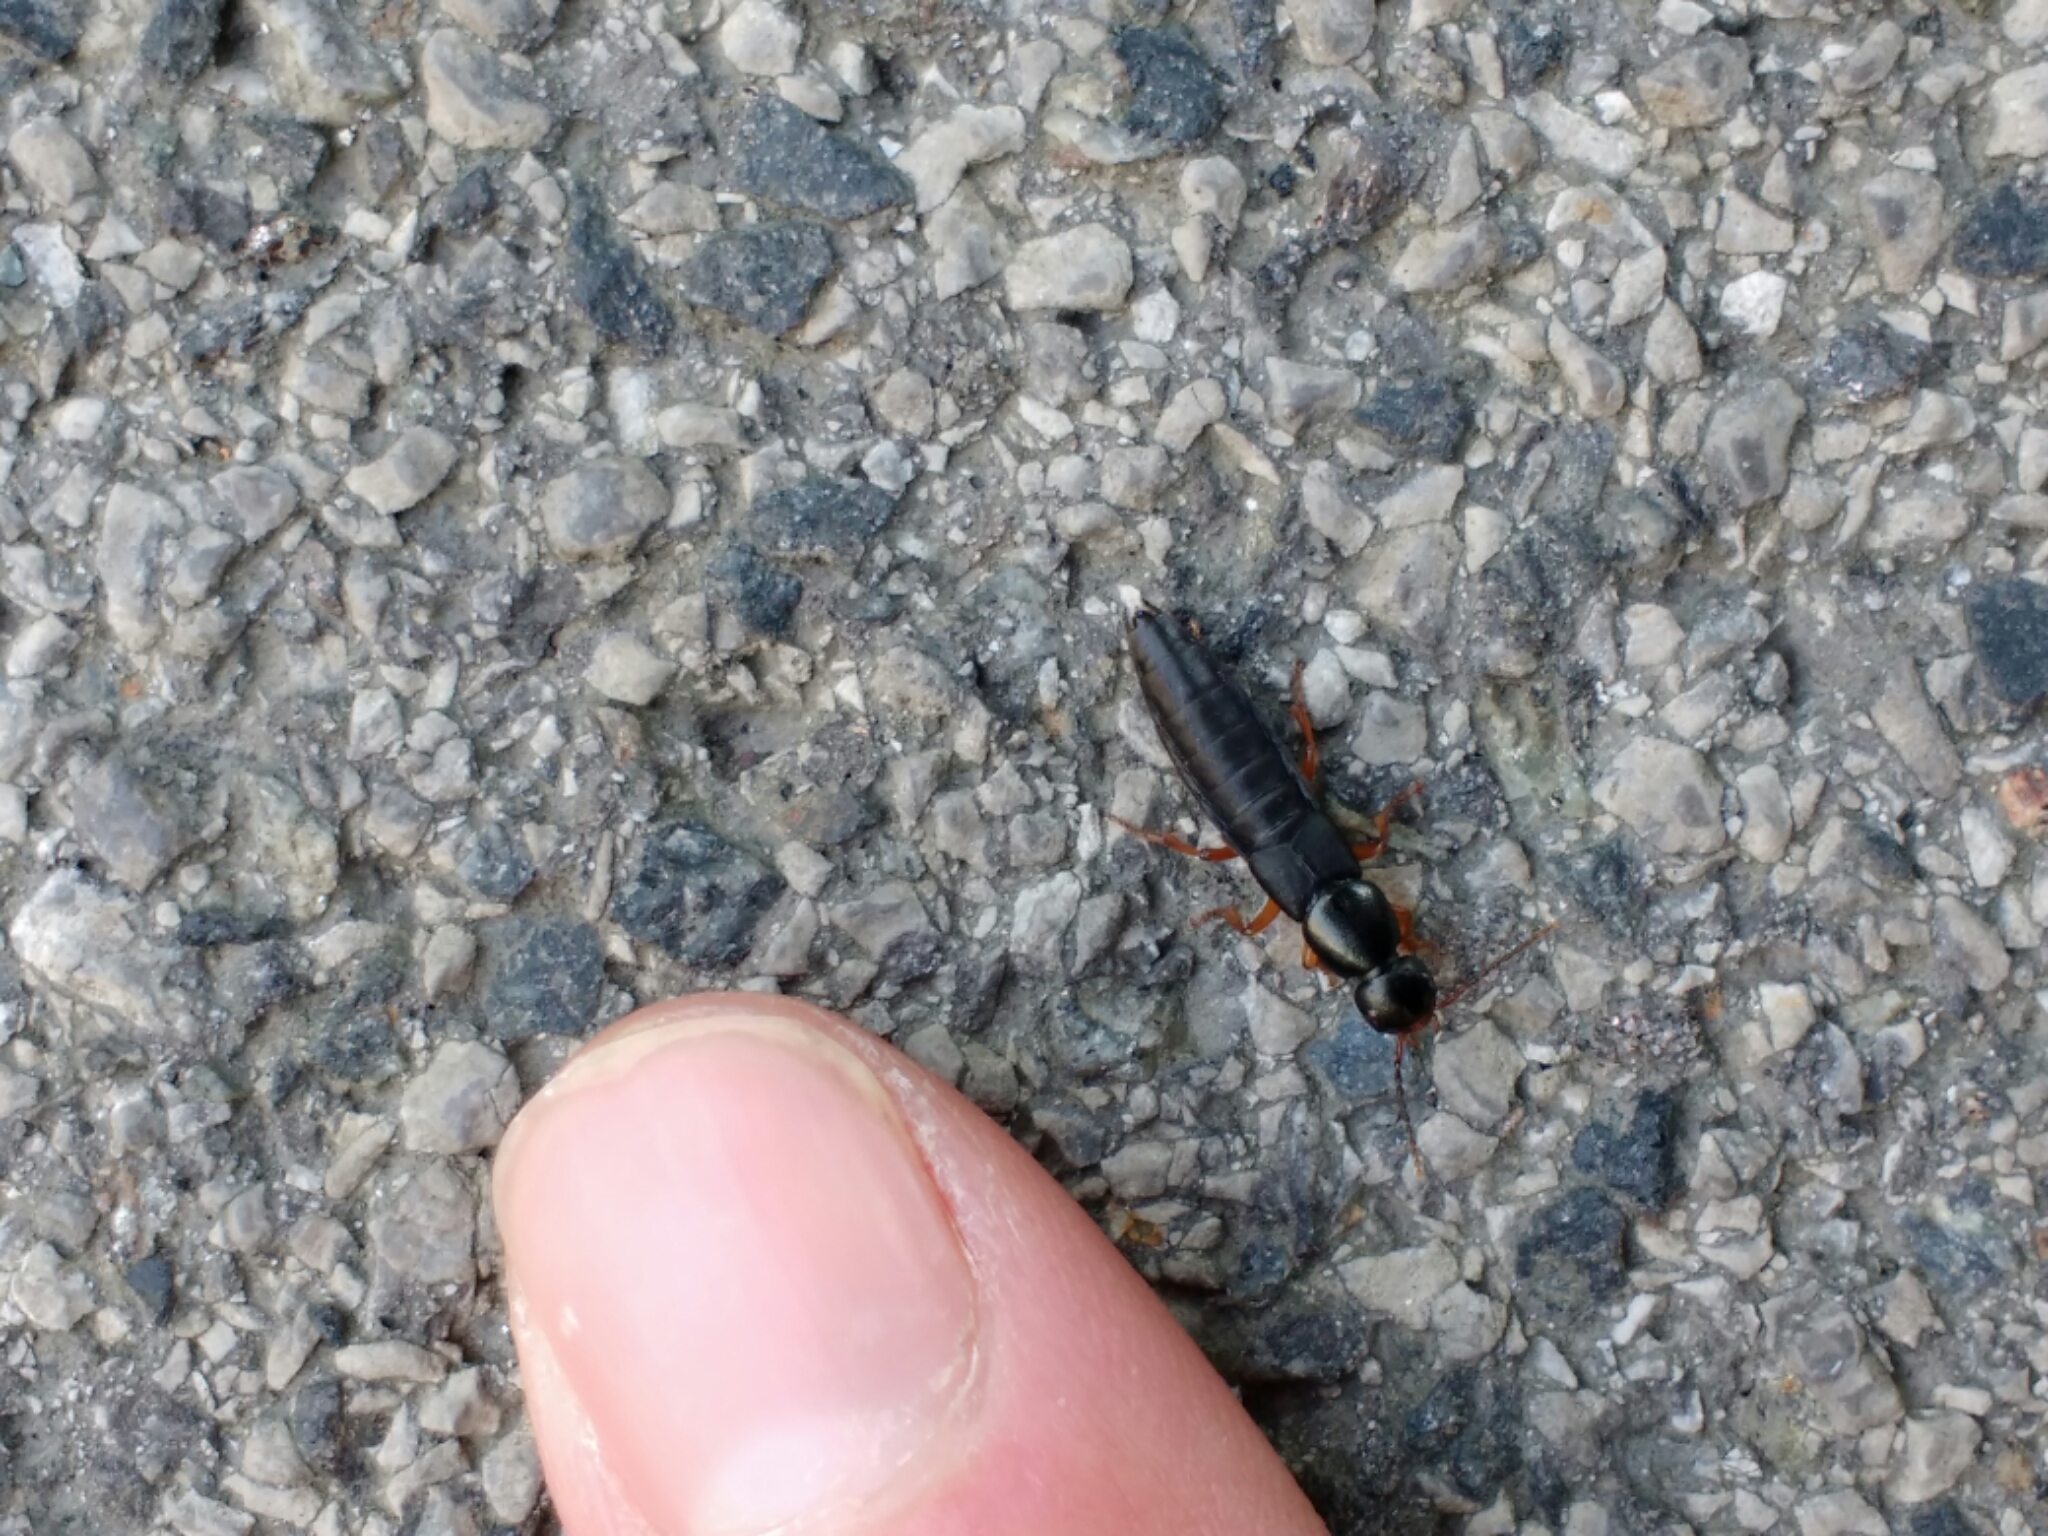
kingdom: Animalia
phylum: Arthropoda
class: Insecta
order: Coleoptera
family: Staphylinidae
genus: Ocypus
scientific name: Ocypus brunnipes
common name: Rove beetle
